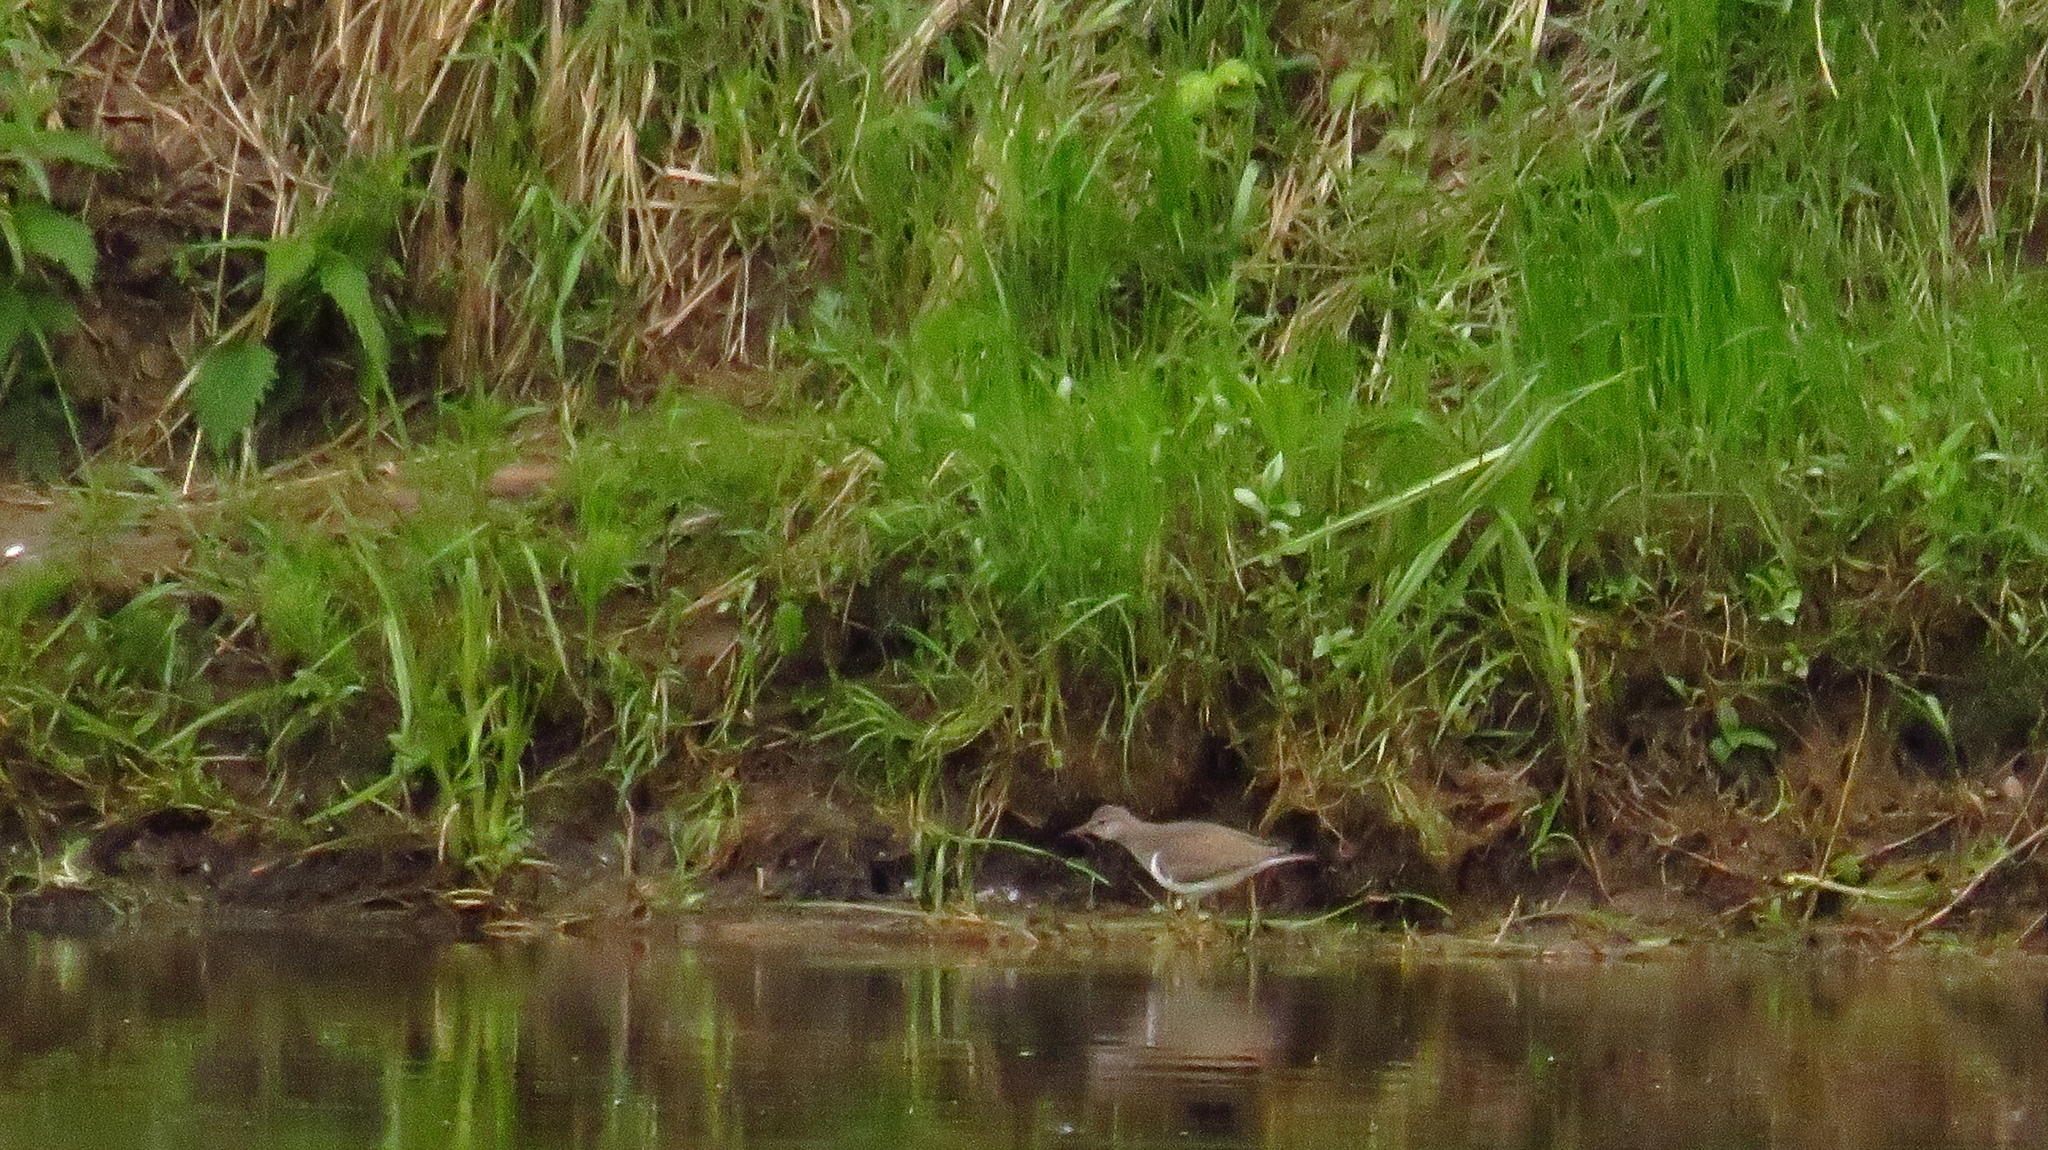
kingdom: Animalia
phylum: Chordata
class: Aves
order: Charadriiformes
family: Scolopacidae
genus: Actitis
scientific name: Actitis hypoleucos
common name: Common sandpiper
